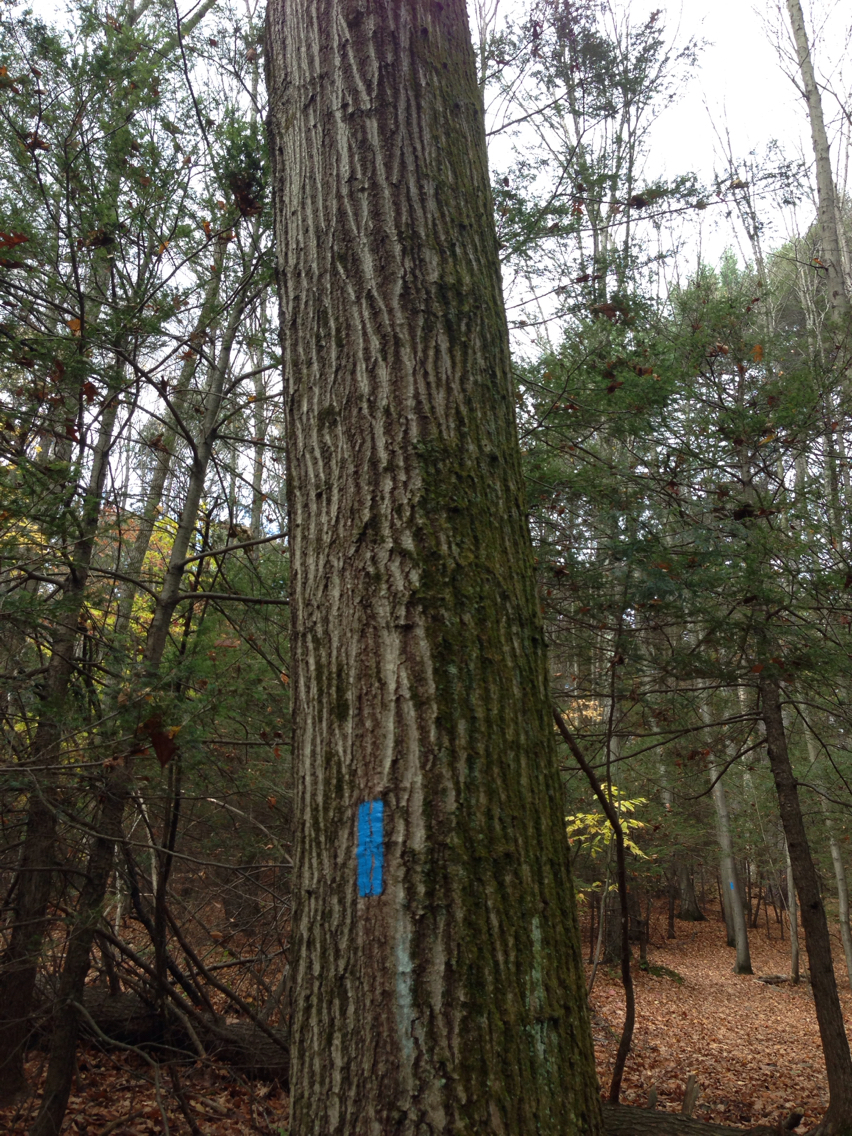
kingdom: Plantae
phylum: Tracheophyta
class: Magnoliopsida
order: Fagales
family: Fagaceae
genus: Quercus
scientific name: Quercus rubra
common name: Red oak
